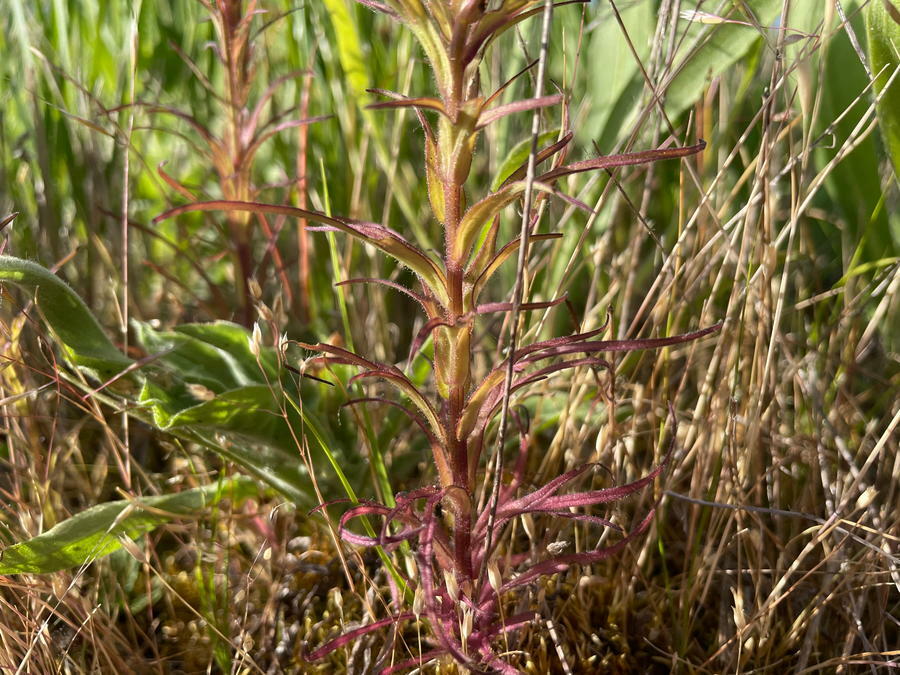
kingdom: Plantae
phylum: Tracheophyta
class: Magnoliopsida
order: Lamiales
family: Orobanchaceae
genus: Orthocarpus
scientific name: Orthocarpus bracteosus
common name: Rosy owl's-clover
